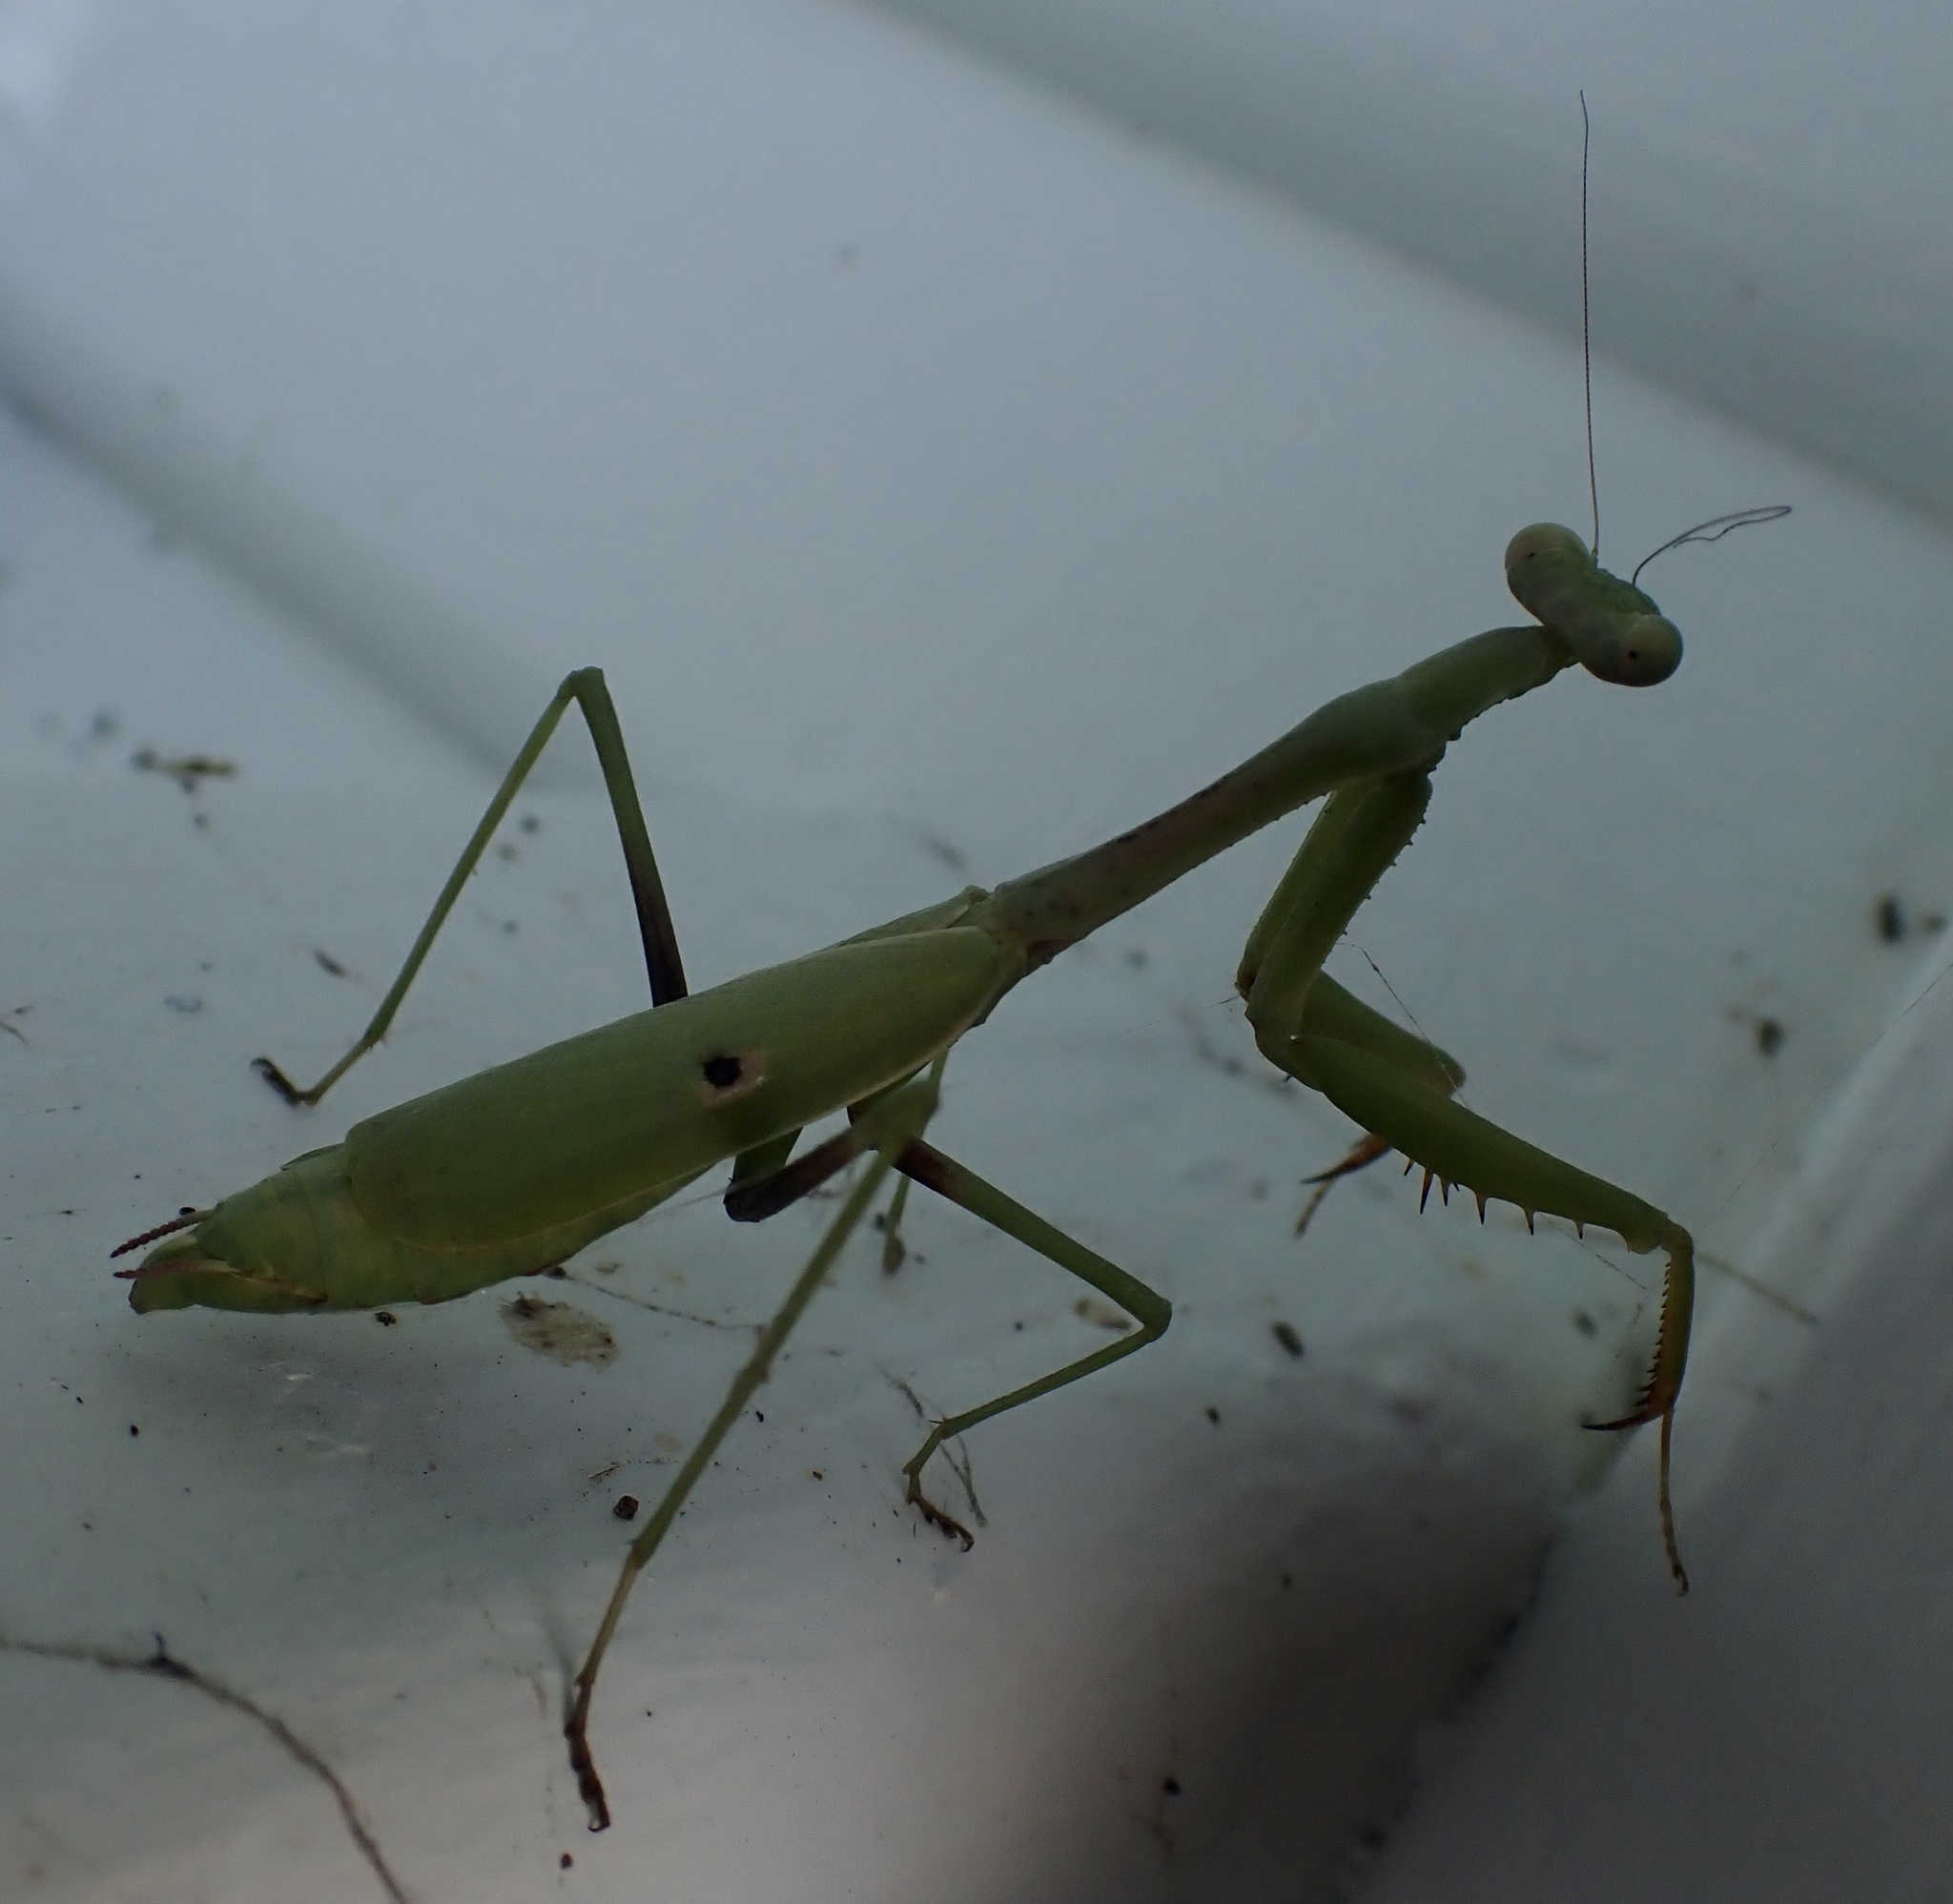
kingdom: Animalia
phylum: Arthropoda
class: Insecta
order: Mantodea
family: Mantidae
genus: Stagmomantis
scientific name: Stagmomantis carolina
